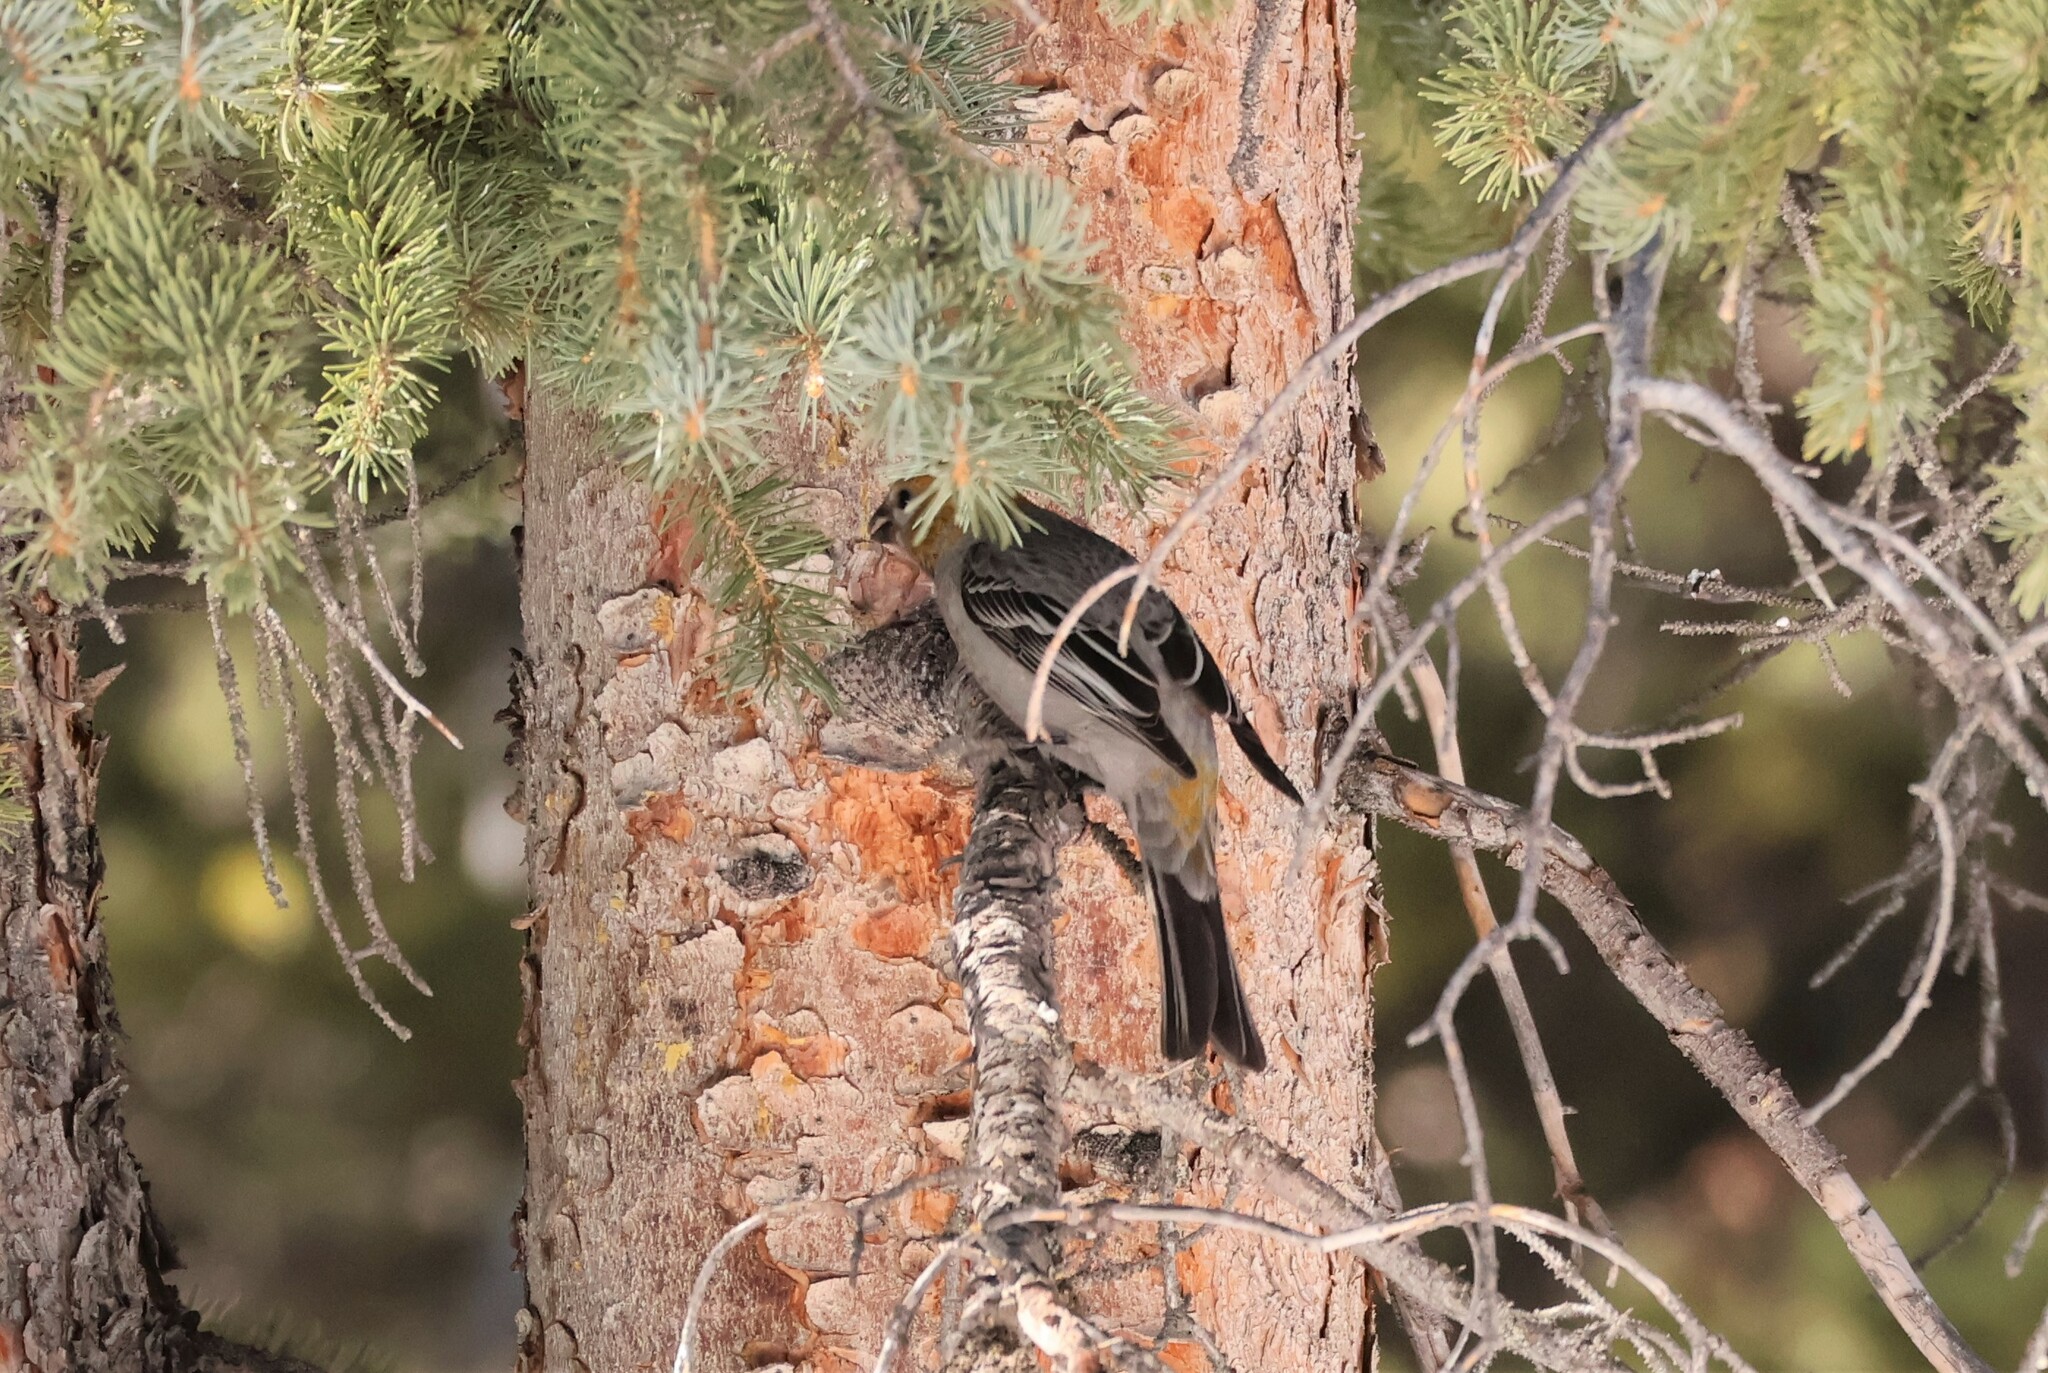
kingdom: Animalia
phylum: Chordata
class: Aves
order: Passeriformes
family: Fringillidae
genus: Pinicola
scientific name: Pinicola enucleator
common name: Pine grosbeak
